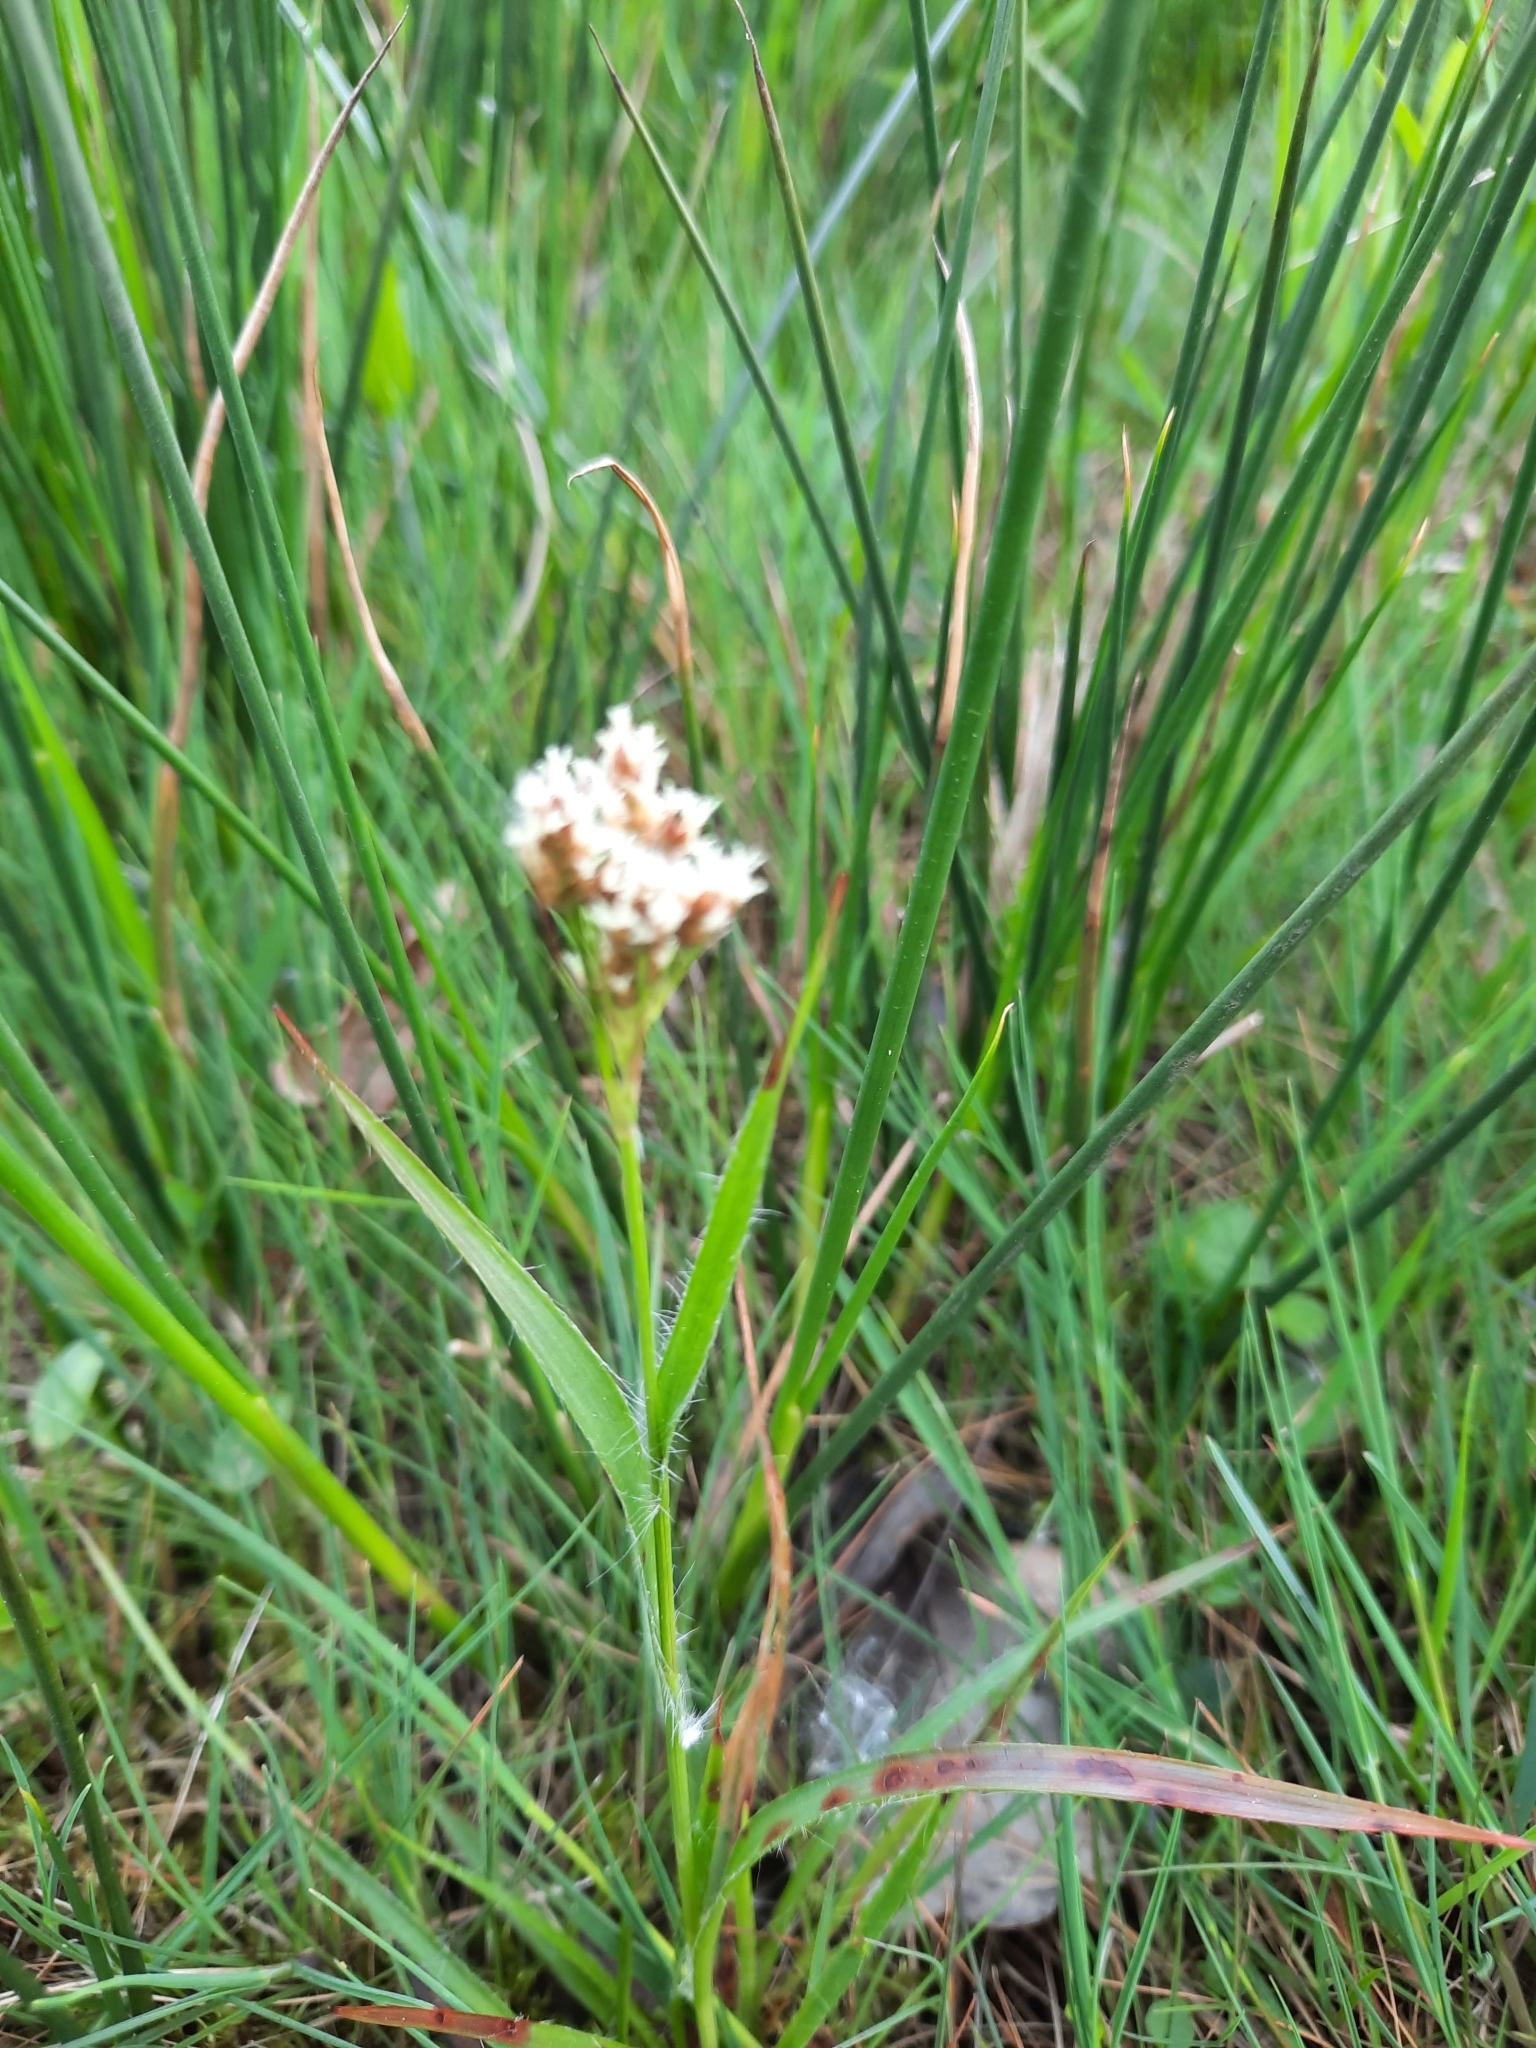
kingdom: Plantae
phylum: Tracheophyta
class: Liliopsida
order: Poales
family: Juncaceae
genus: Luzula
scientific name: Luzula multiflora
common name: Heath wood-rush
